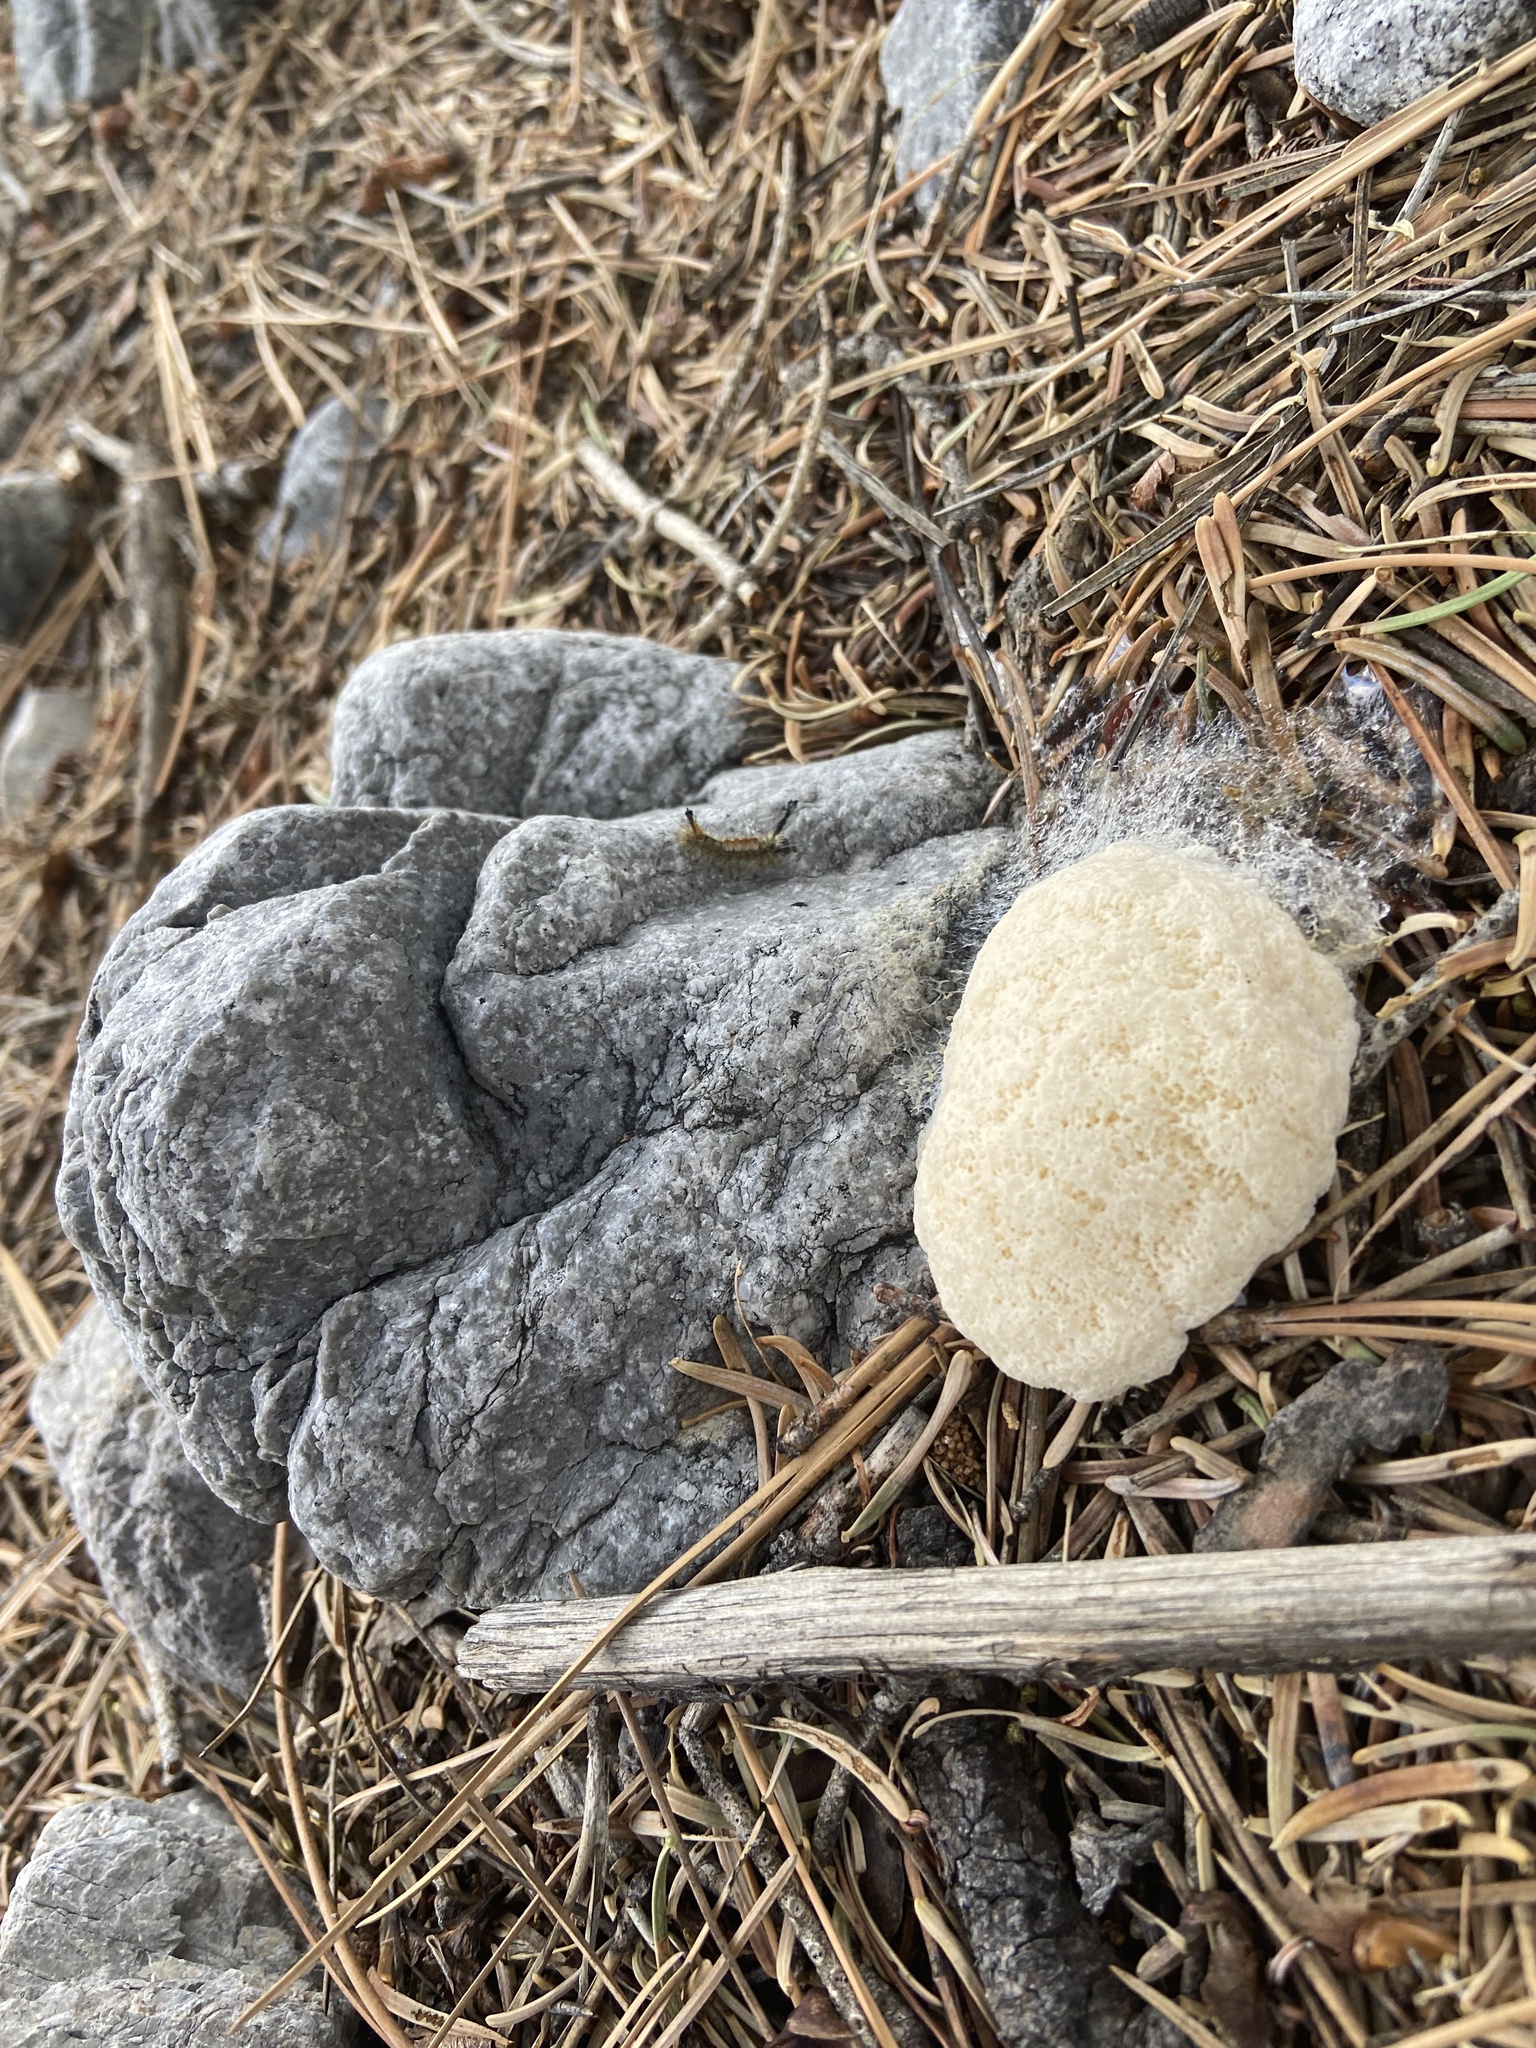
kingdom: Protozoa
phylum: Mycetozoa
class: Myxomycetes
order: Physarales
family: Physaraceae
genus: Fuligo
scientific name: Fuligo septica
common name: Dog vomit slime mold
